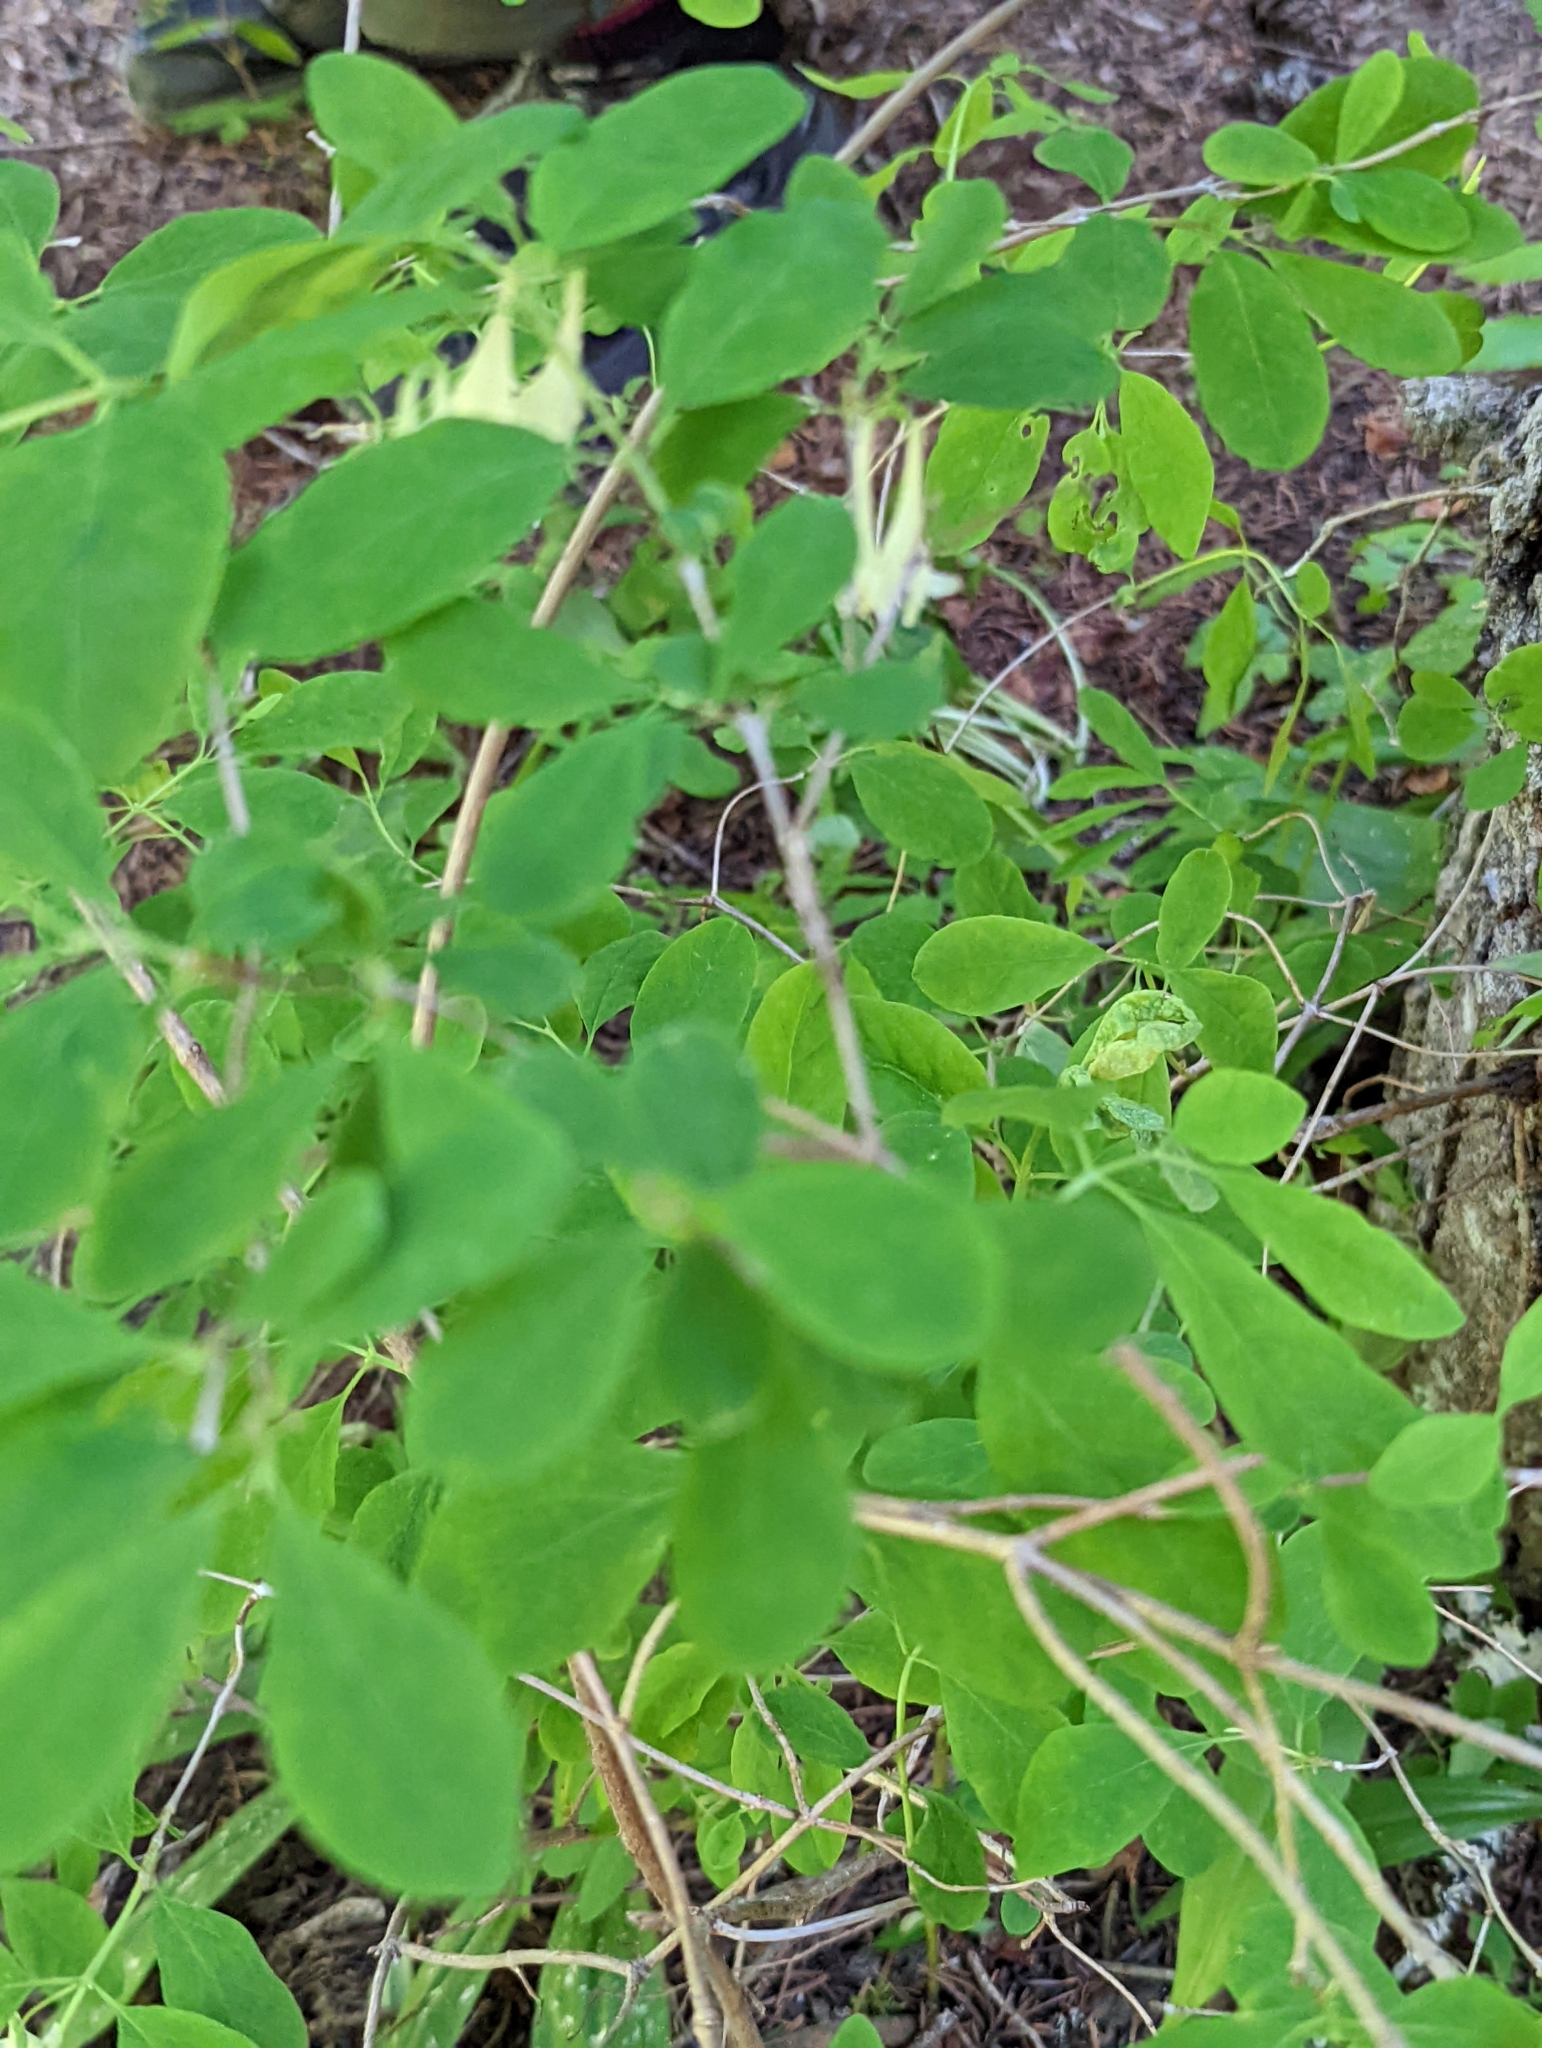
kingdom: Plantae
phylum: Tracheophyta
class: Magnoliopsida
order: Dipsacales
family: Caprifoliaceae
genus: Lonicera
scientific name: Lonicera utahensis
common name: Utah honeysuckle
